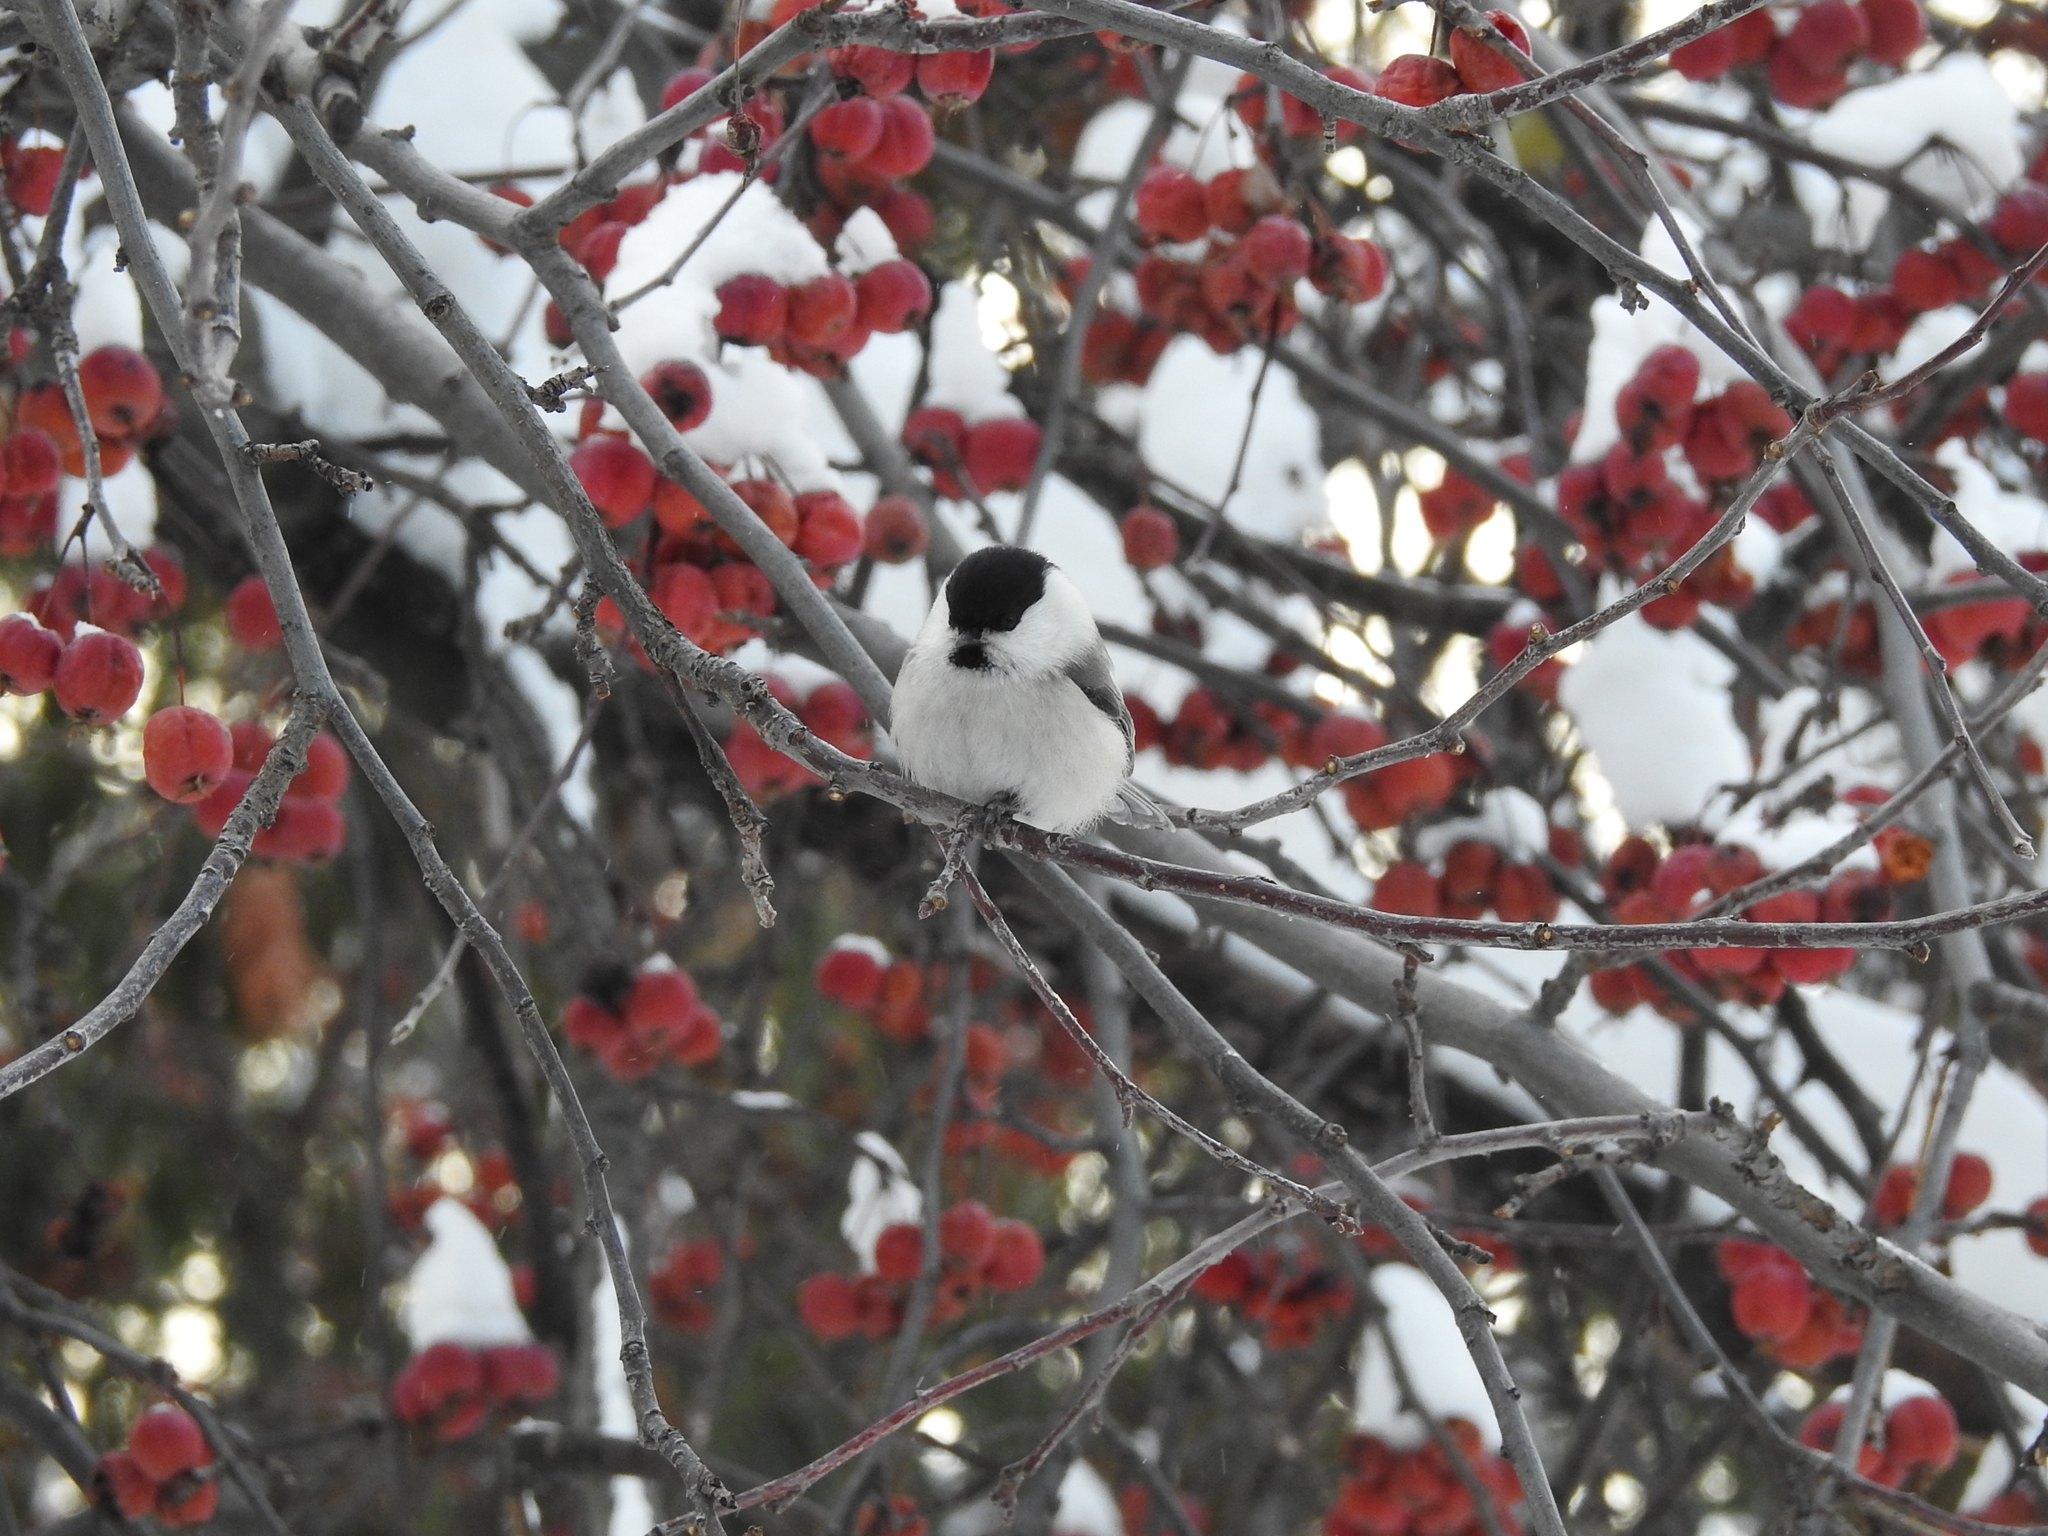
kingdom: Animalia
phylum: Chordata
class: Aves
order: Passeriformes
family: Paridae
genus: Poecile
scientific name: Poecile montanus
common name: Willow tit
